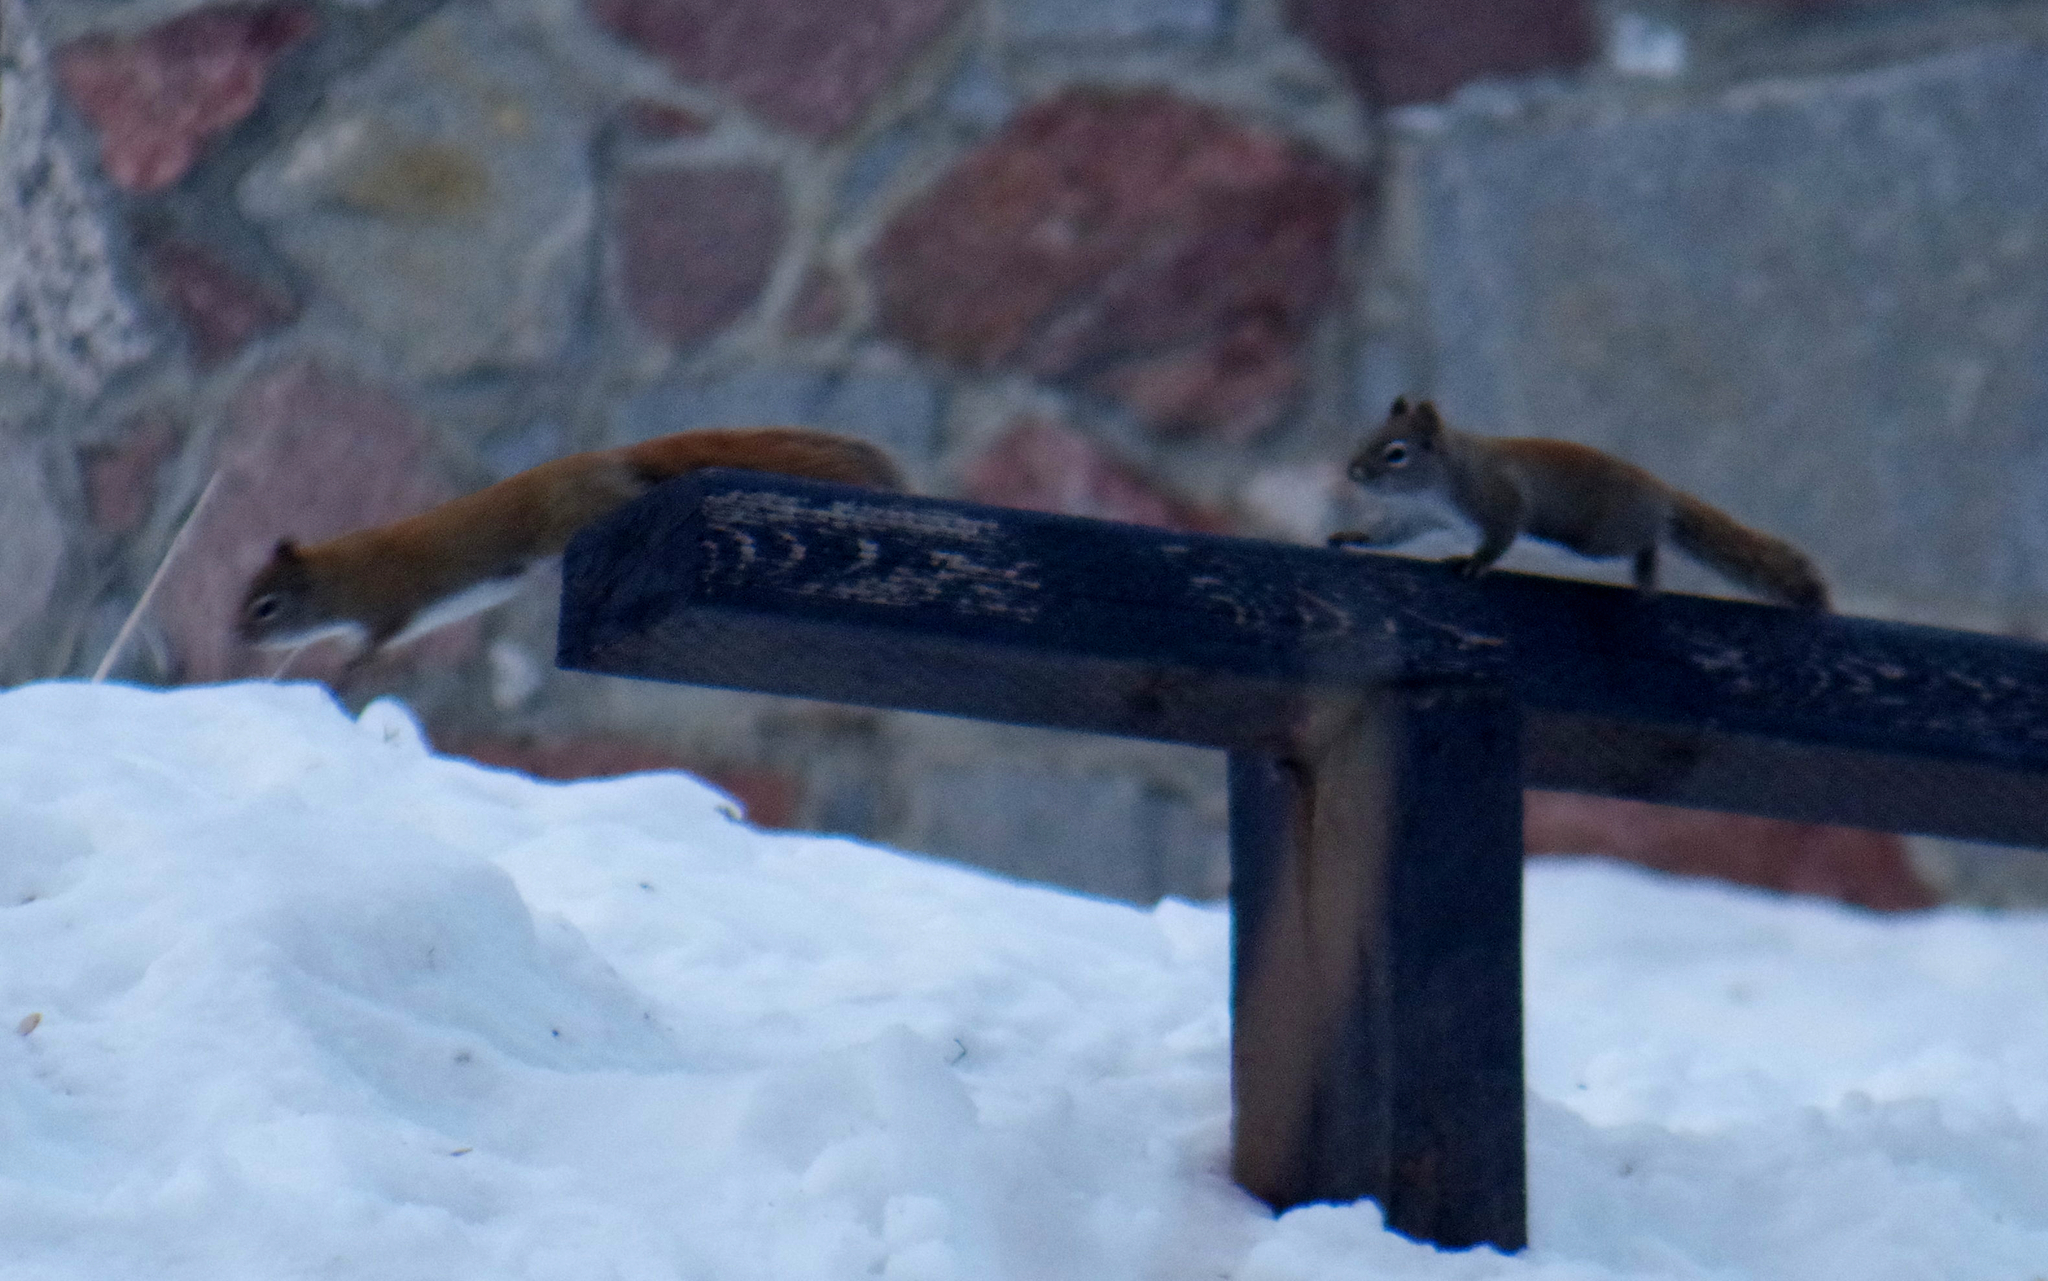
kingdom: Animalia
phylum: Chordata
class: Mammalia
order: Rodentia
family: Sciuridae
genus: Tamiasciurus
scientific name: Tamiasciurus hudsonicus
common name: Red squirrel
